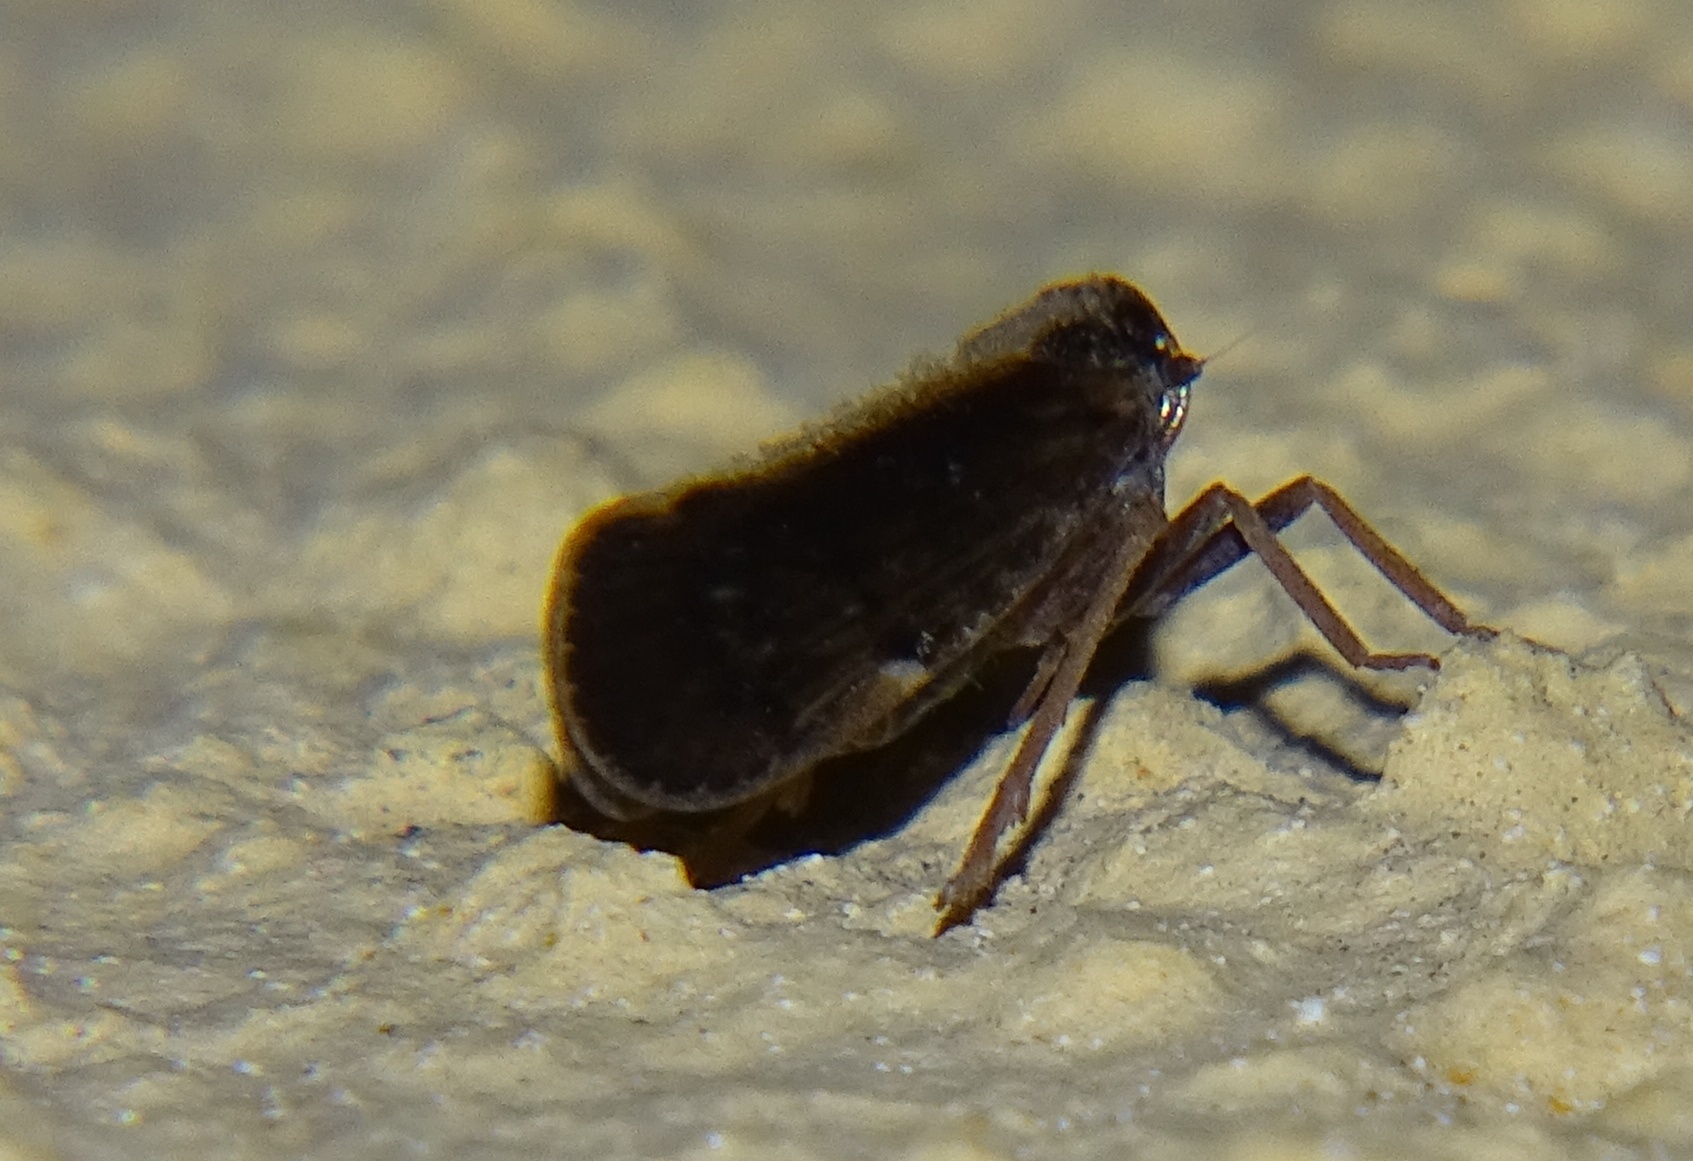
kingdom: Animalia
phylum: Arthropoda
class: Insecta
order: Hemiptera
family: Cixiidae
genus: Pintalia
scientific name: Pintalia delicata
